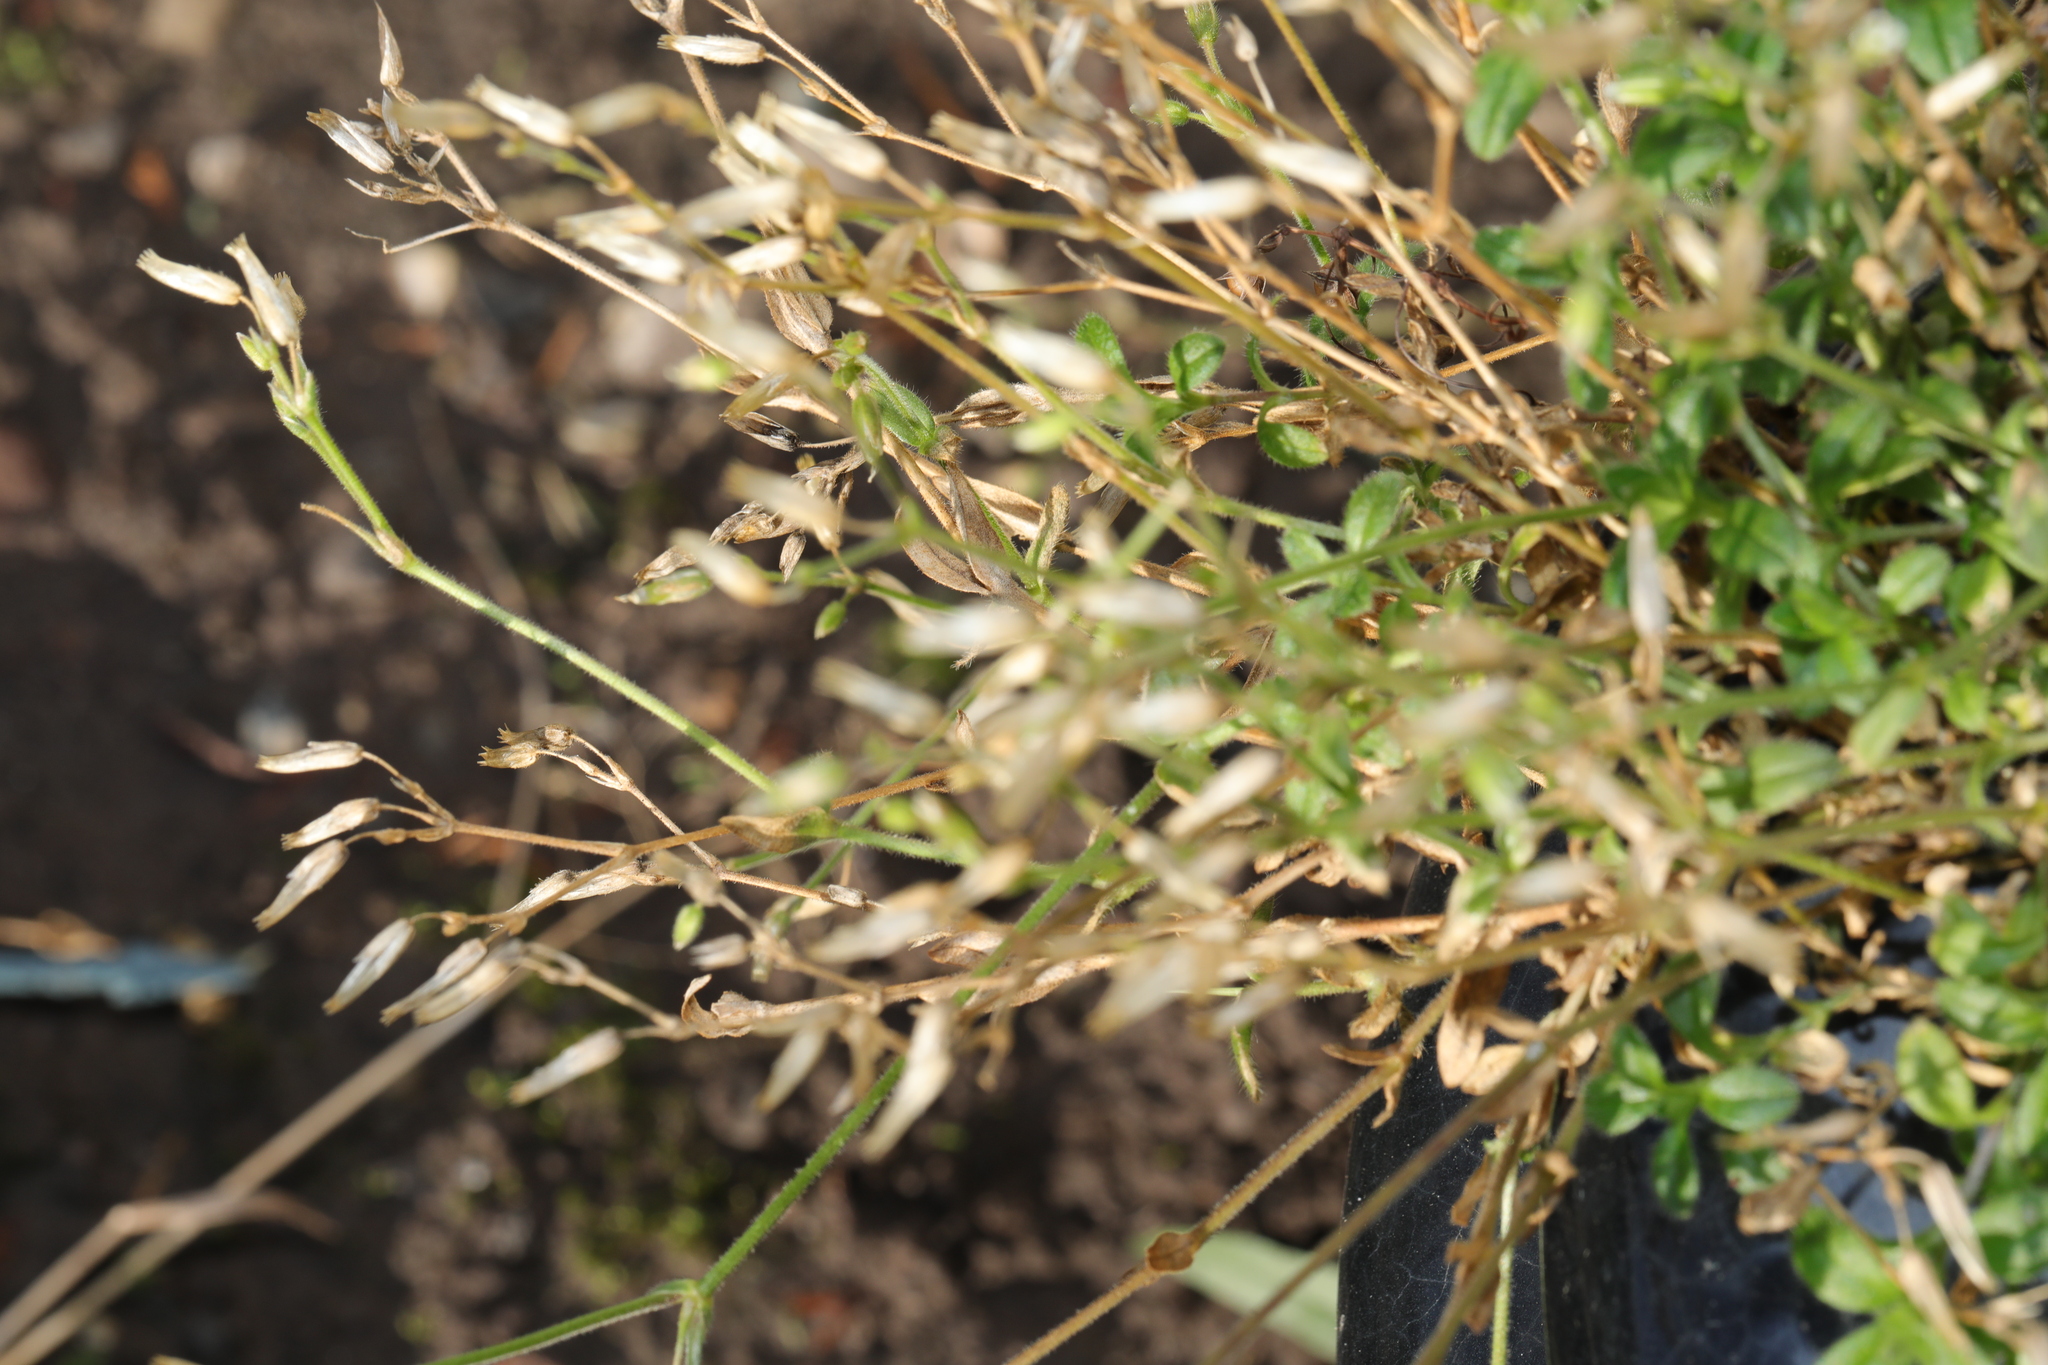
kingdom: Plantae
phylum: Tracheophyta
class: Magnoliopsida
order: Caryophyllales
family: Caryophyllaceae
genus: Cerastium
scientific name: Cerastium fontanum
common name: Common mouse-ear
